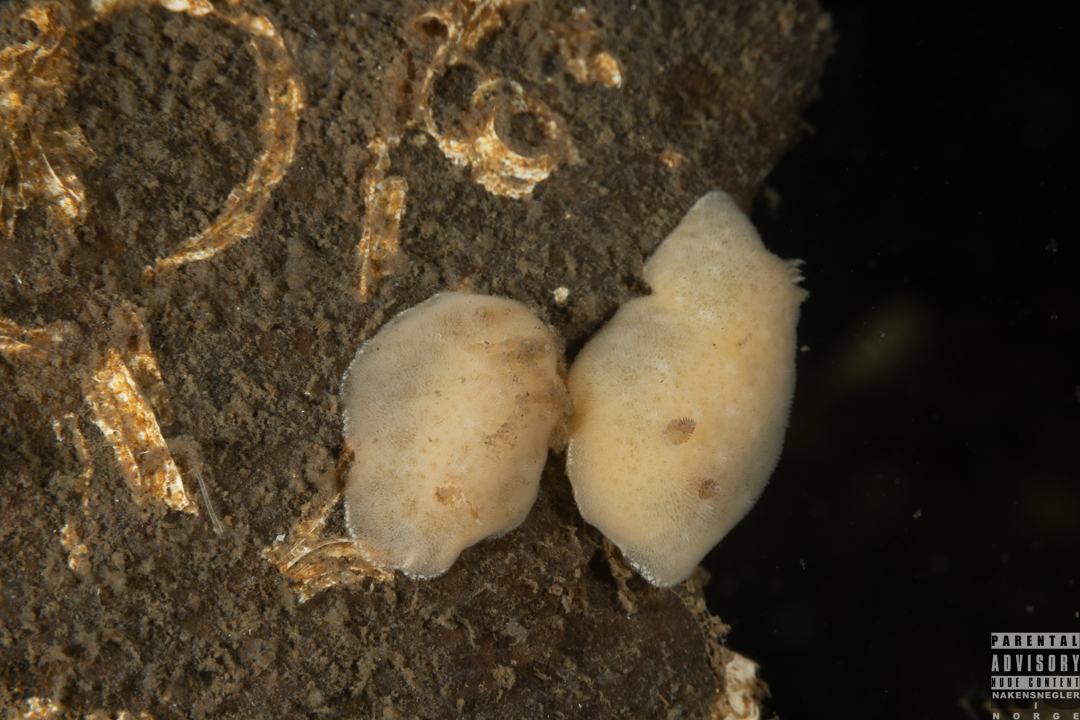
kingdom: Animalia
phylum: Mollusca
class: Gastropoda
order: Nudibranchia
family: Discodorididae
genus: Jorunna
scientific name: Jorunna tomentosa
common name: Grey sea slug
